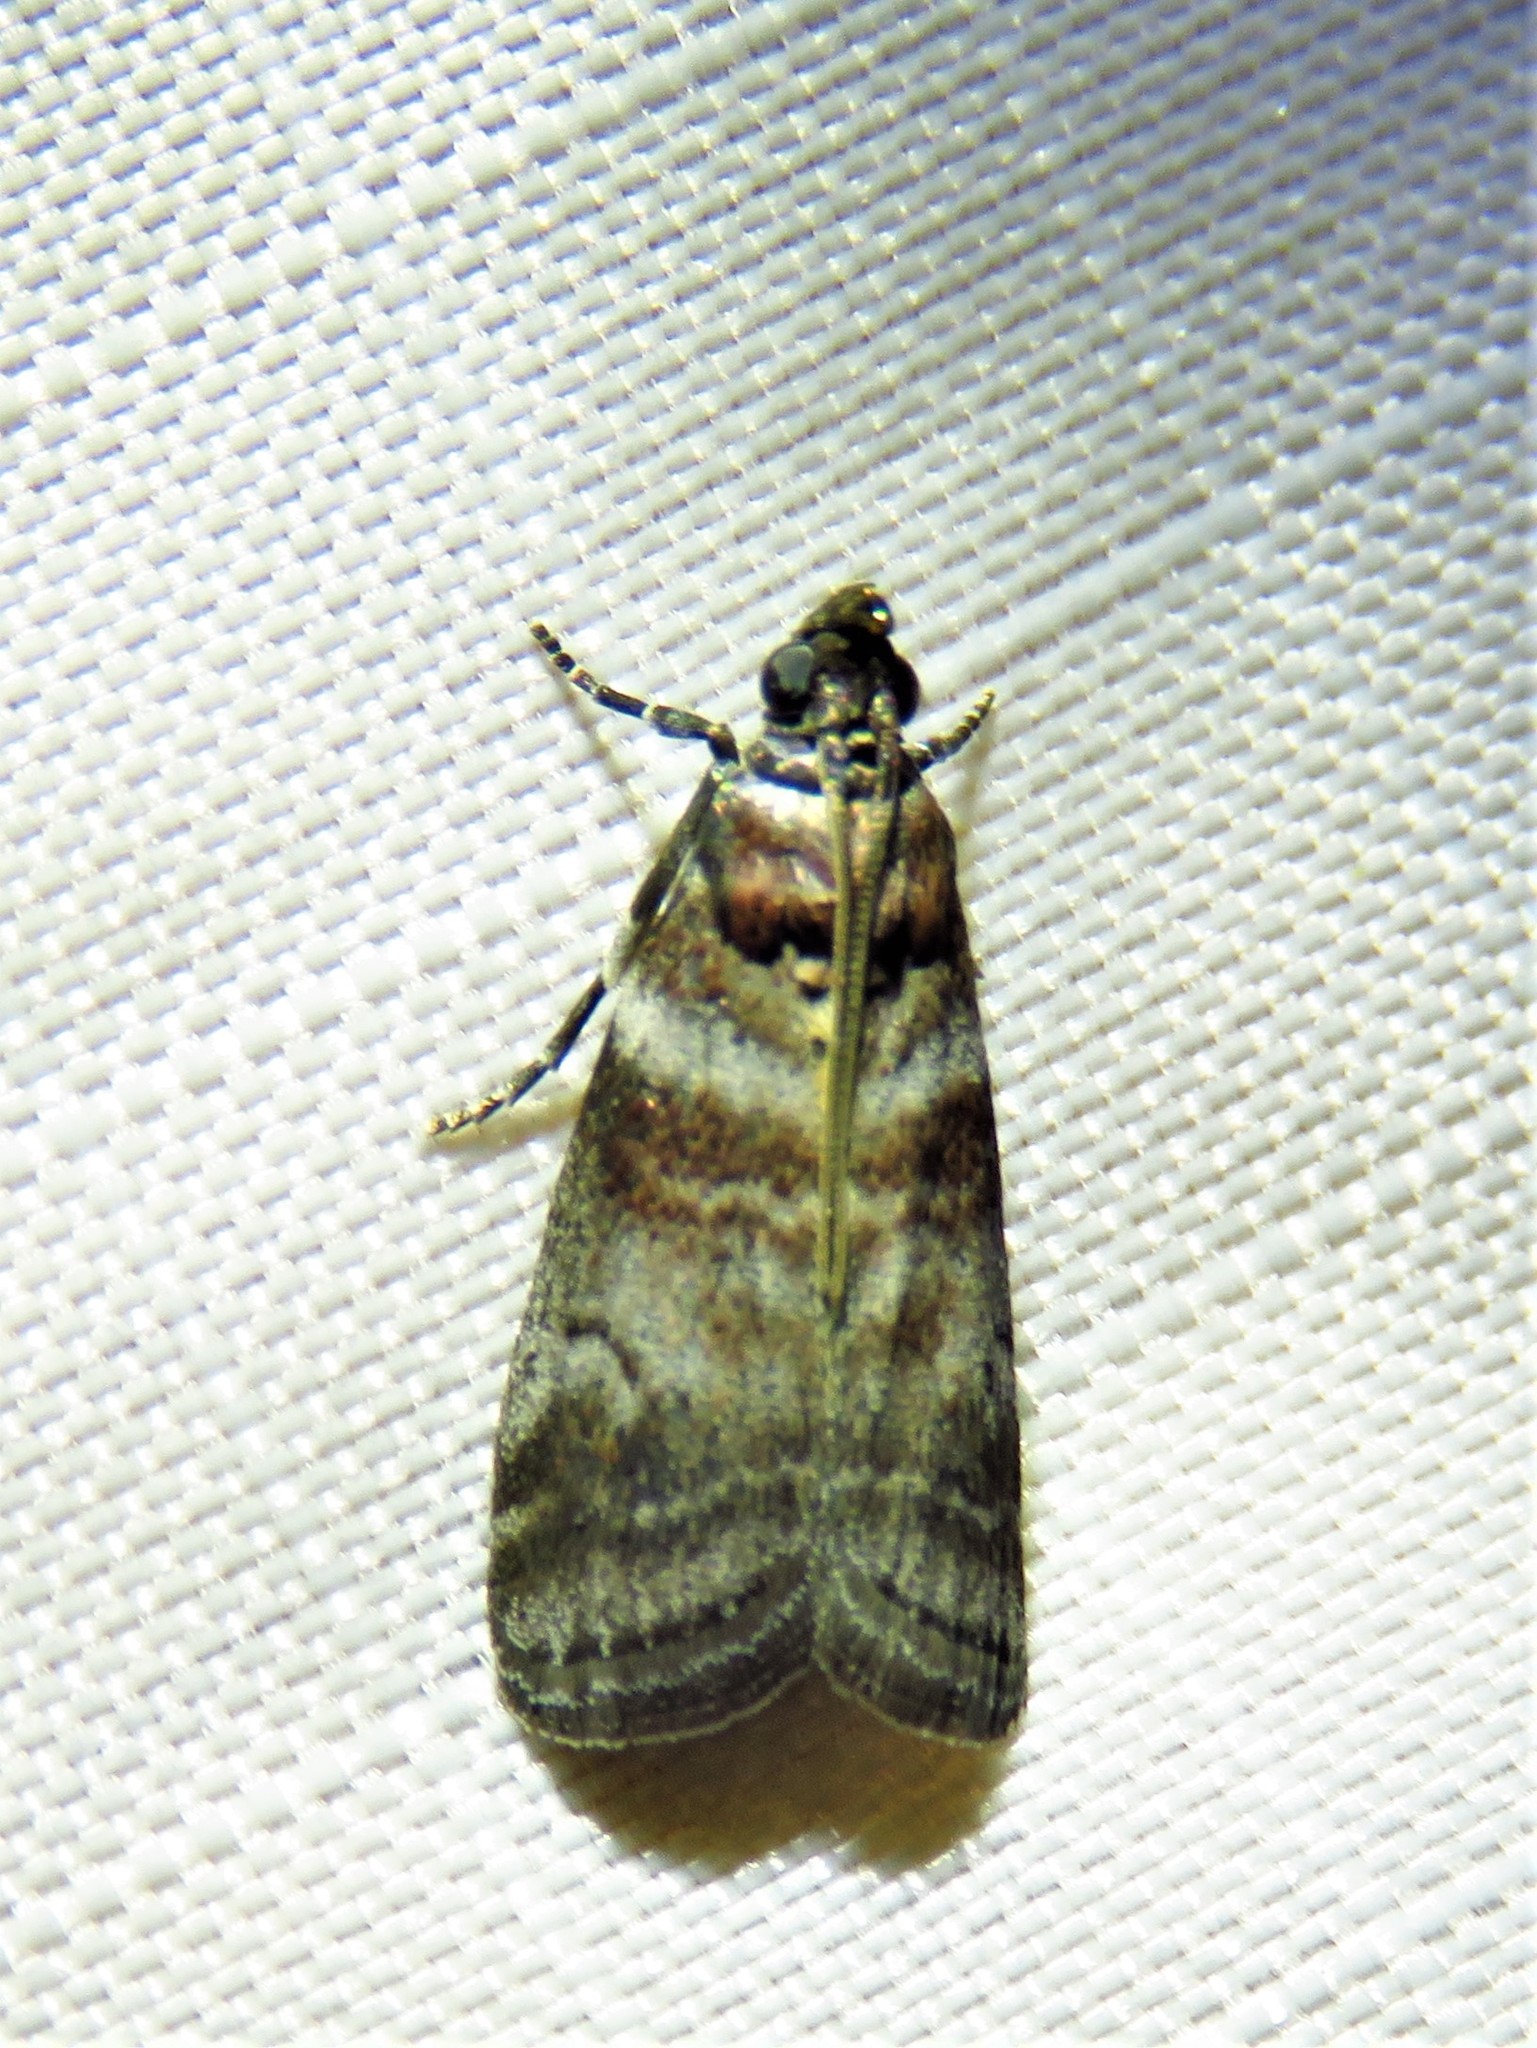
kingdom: Animalia
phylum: Arthropoda
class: Insecta
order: Lepidoptera
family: Pyralidae
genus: Sciota
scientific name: Sciota uvinella
